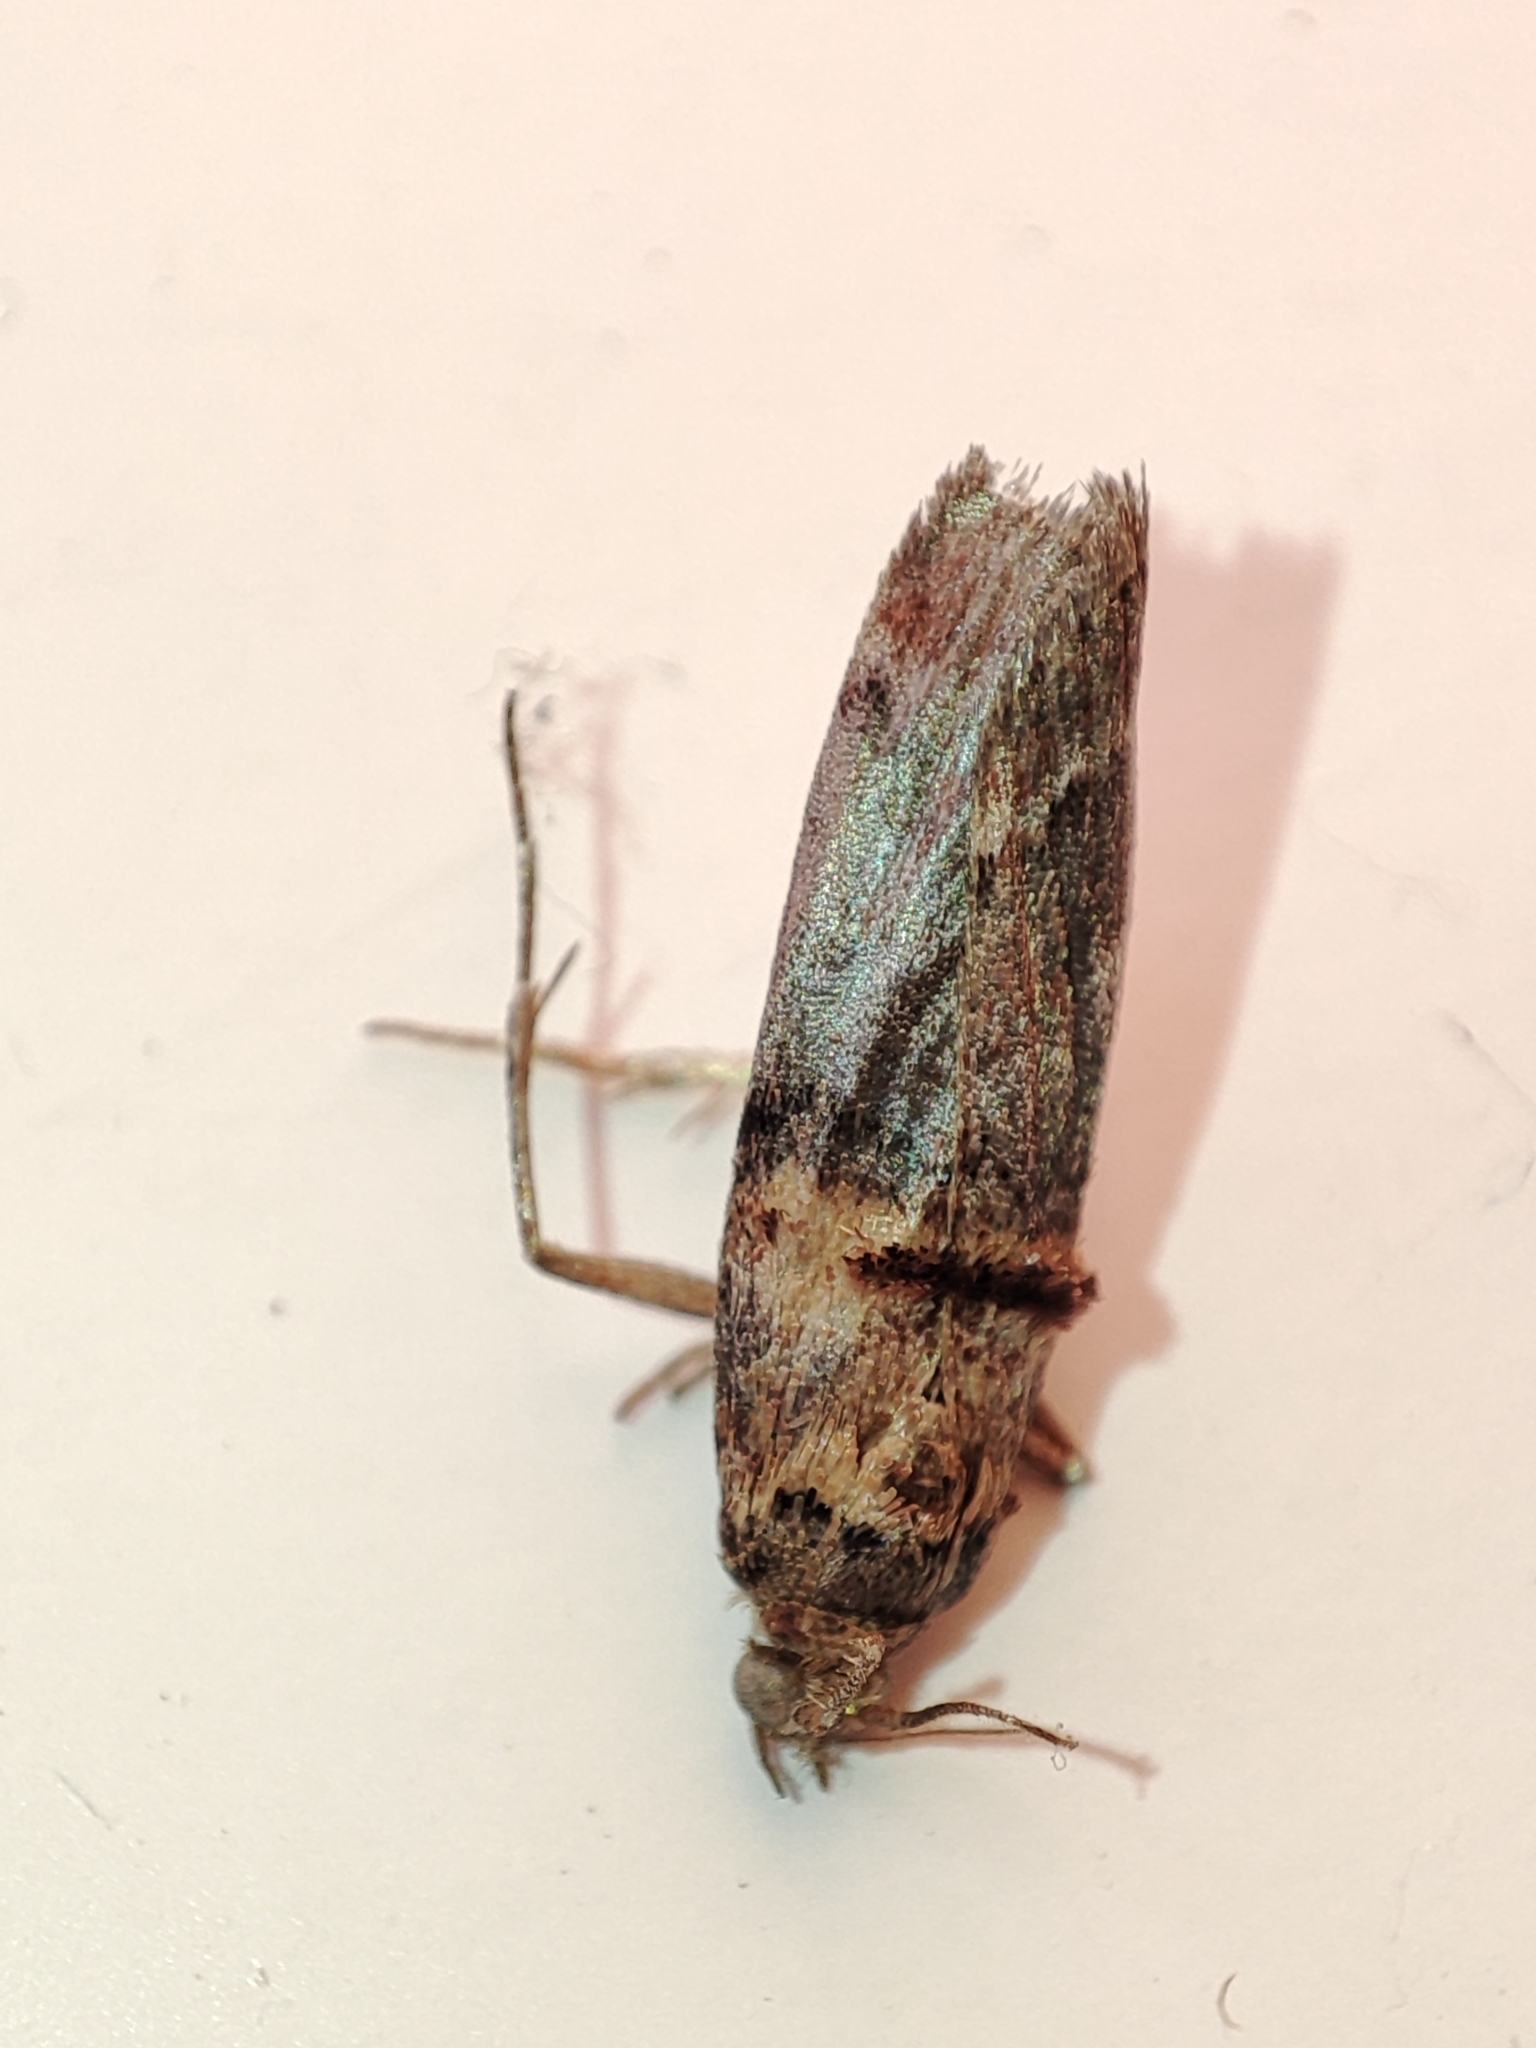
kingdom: Animalia
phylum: Arthropoda
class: Insecta
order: Lepidoptera
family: Pyralidae
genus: Trachonitis
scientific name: Trachonitis cristella
